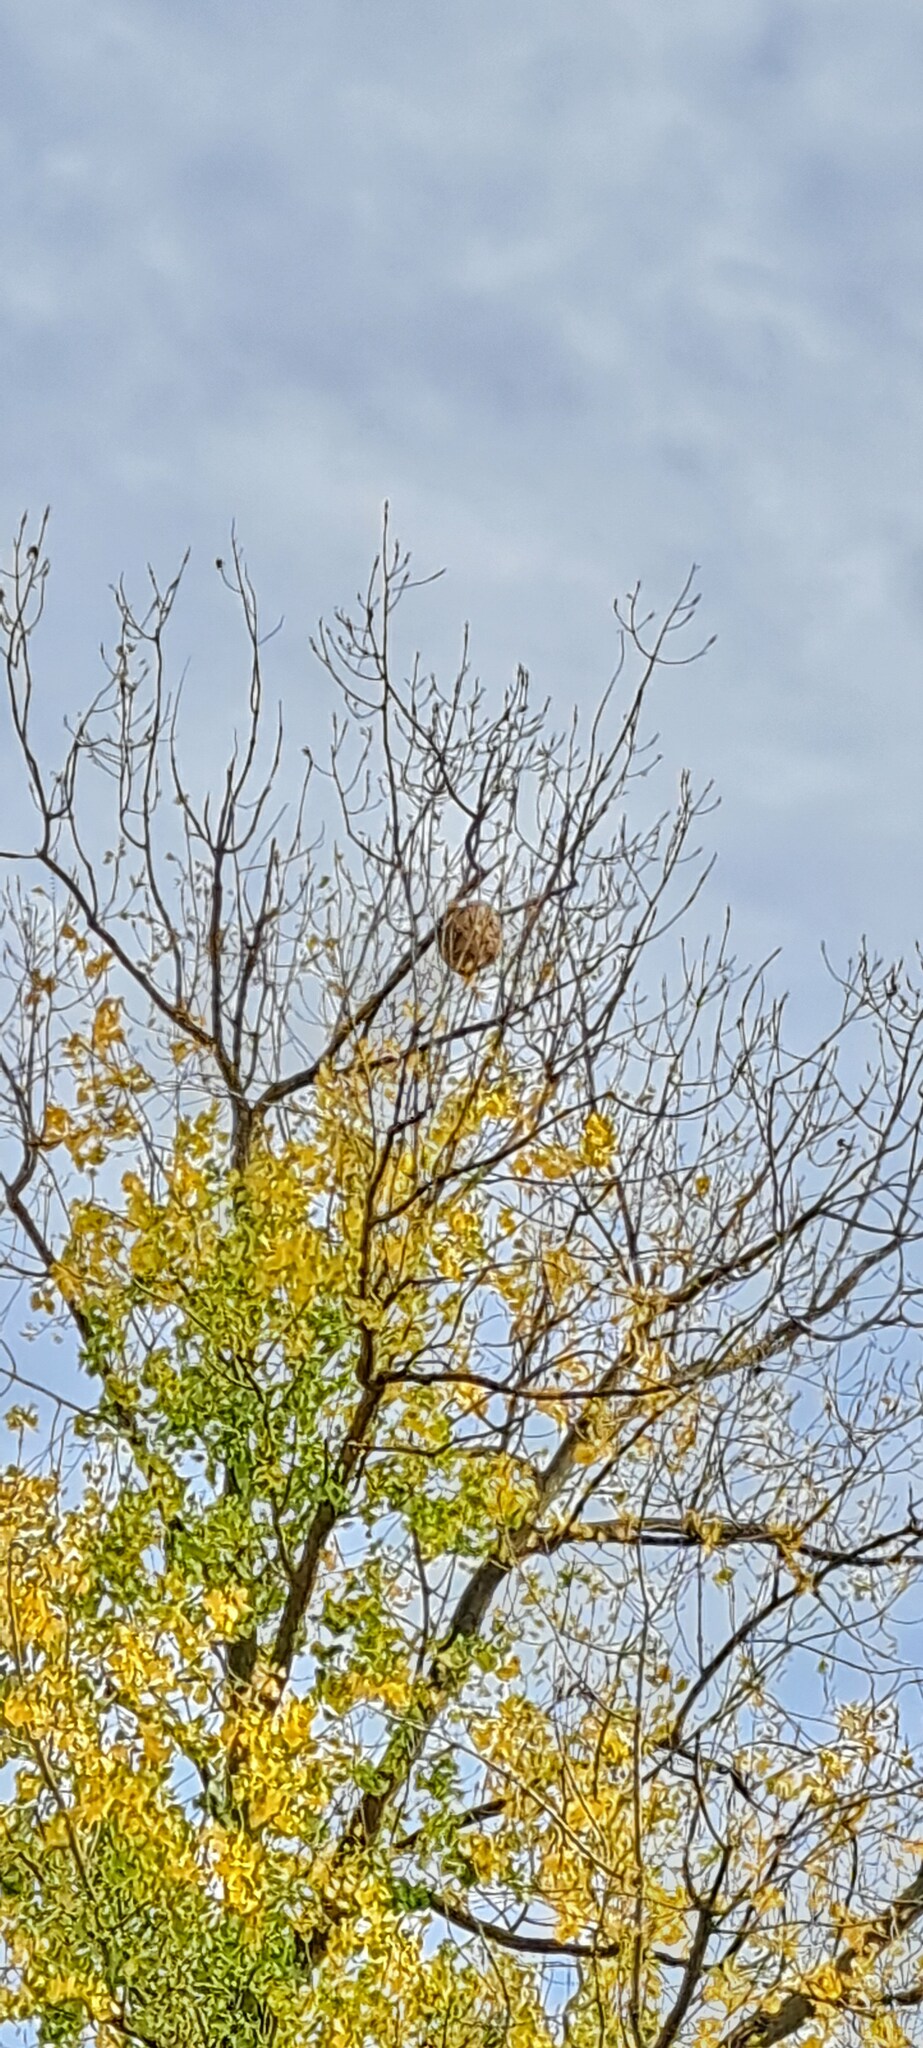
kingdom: Animalia
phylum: Arthropoda
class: Insecta
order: Hymenoptera
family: Vespidae
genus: Vespa
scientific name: Vespa velutina
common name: Asian hornet
